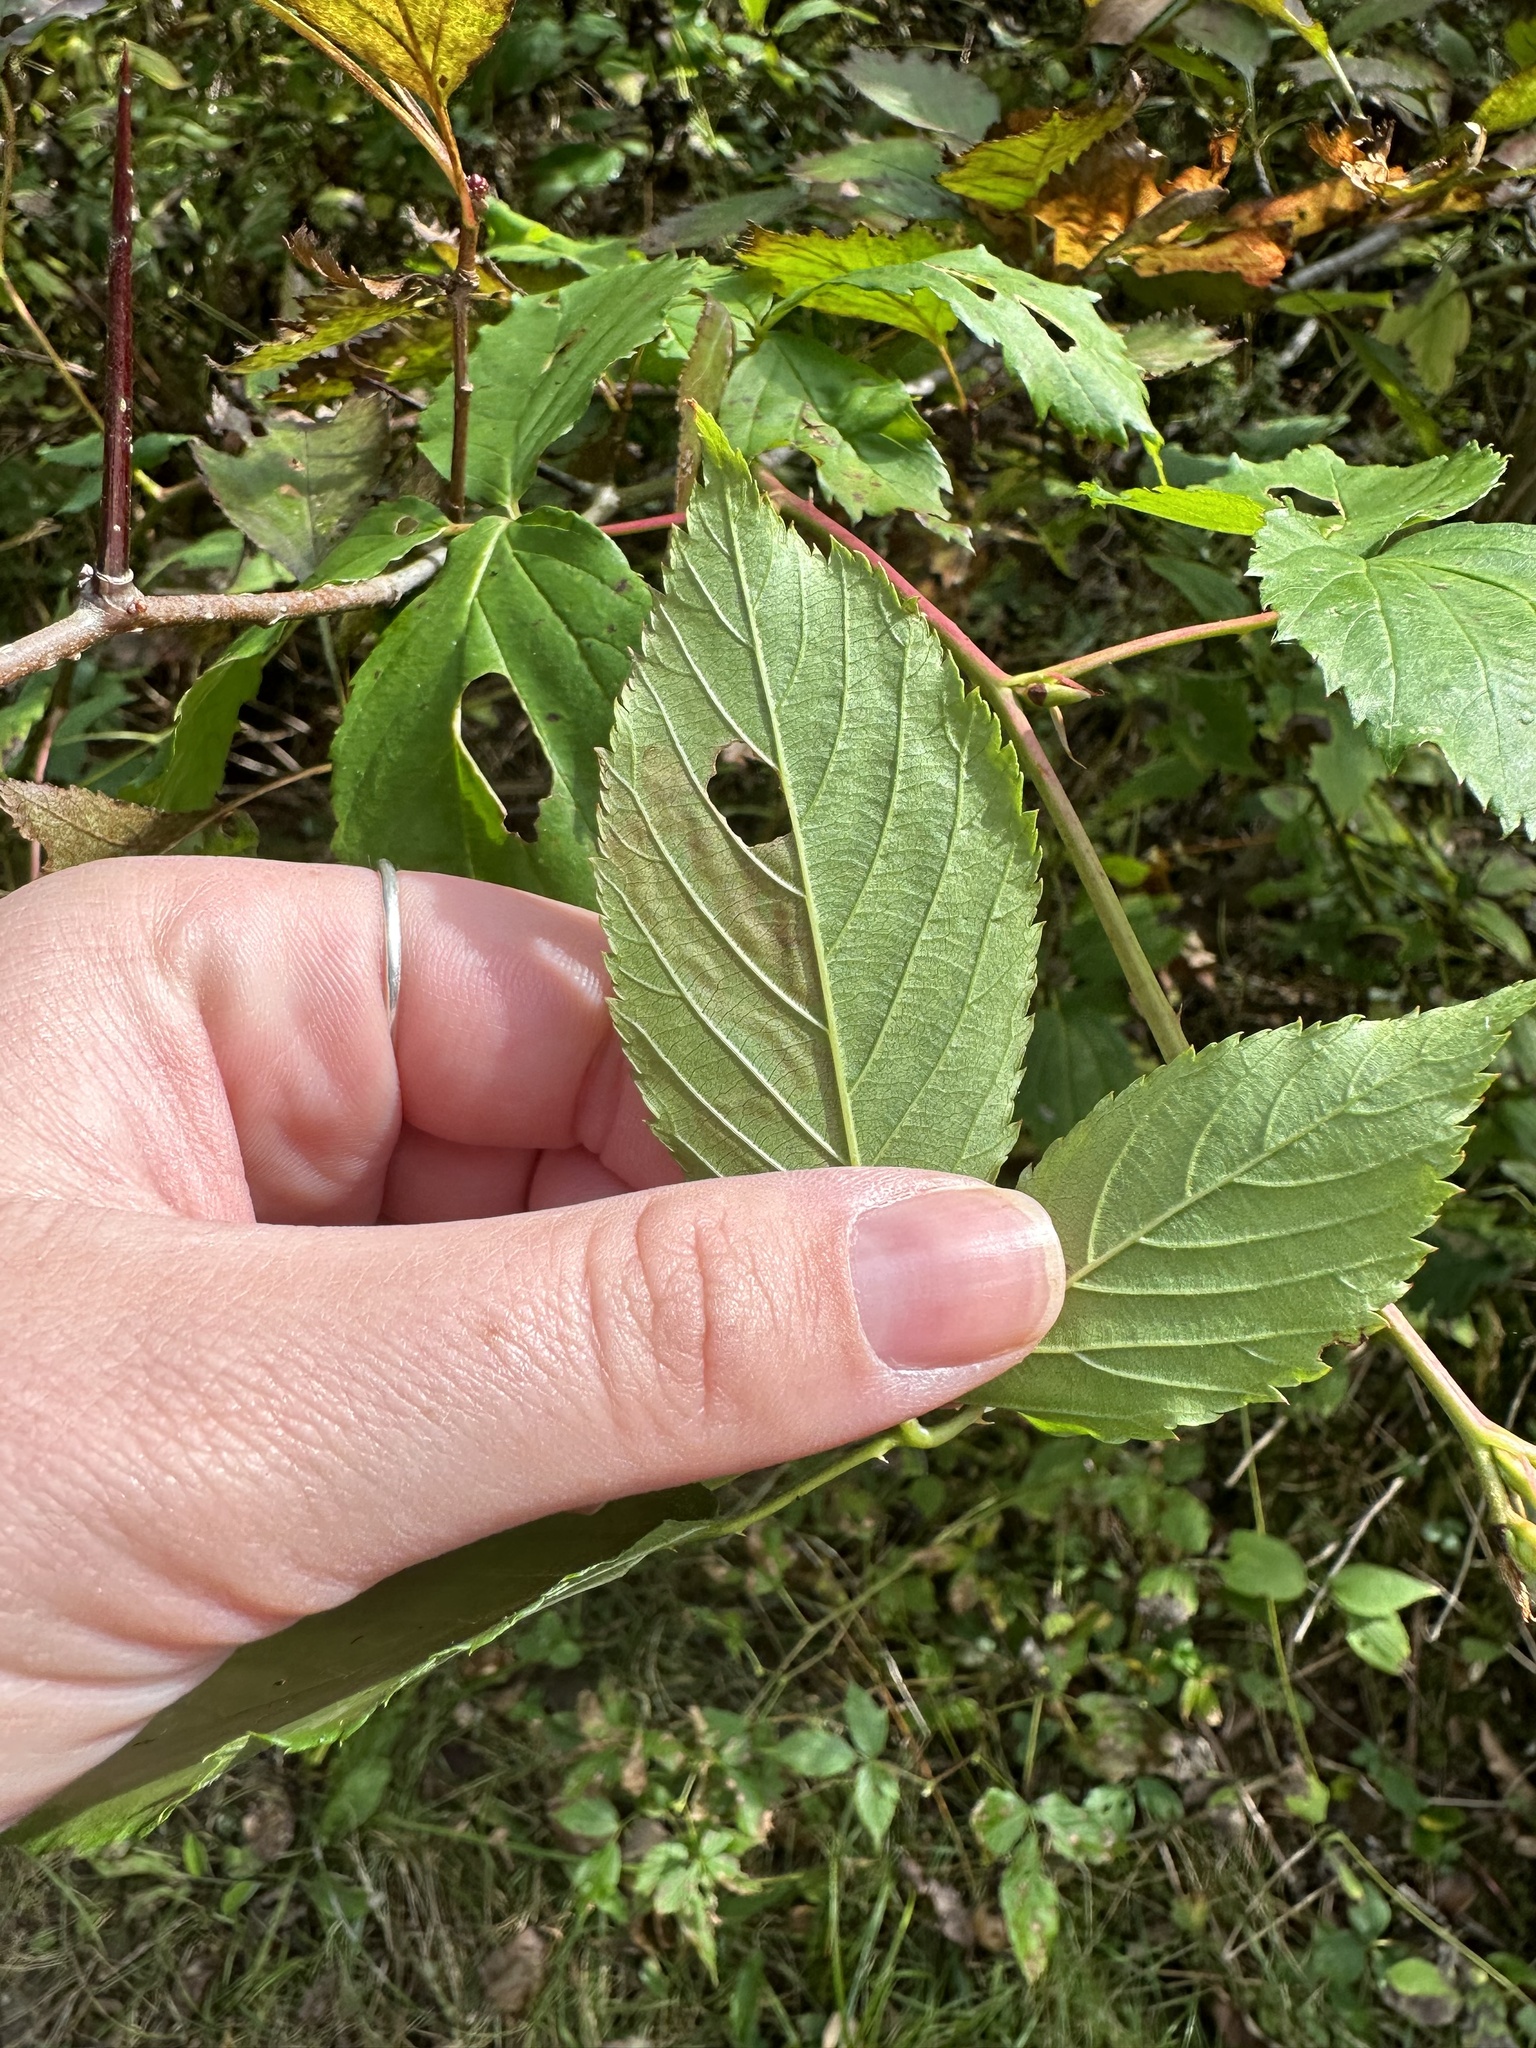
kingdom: Animalia
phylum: Arthropoda
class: Insecta
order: Diptera
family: Agromyzidae
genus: Agromyza
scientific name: Agromyza vockerothi
